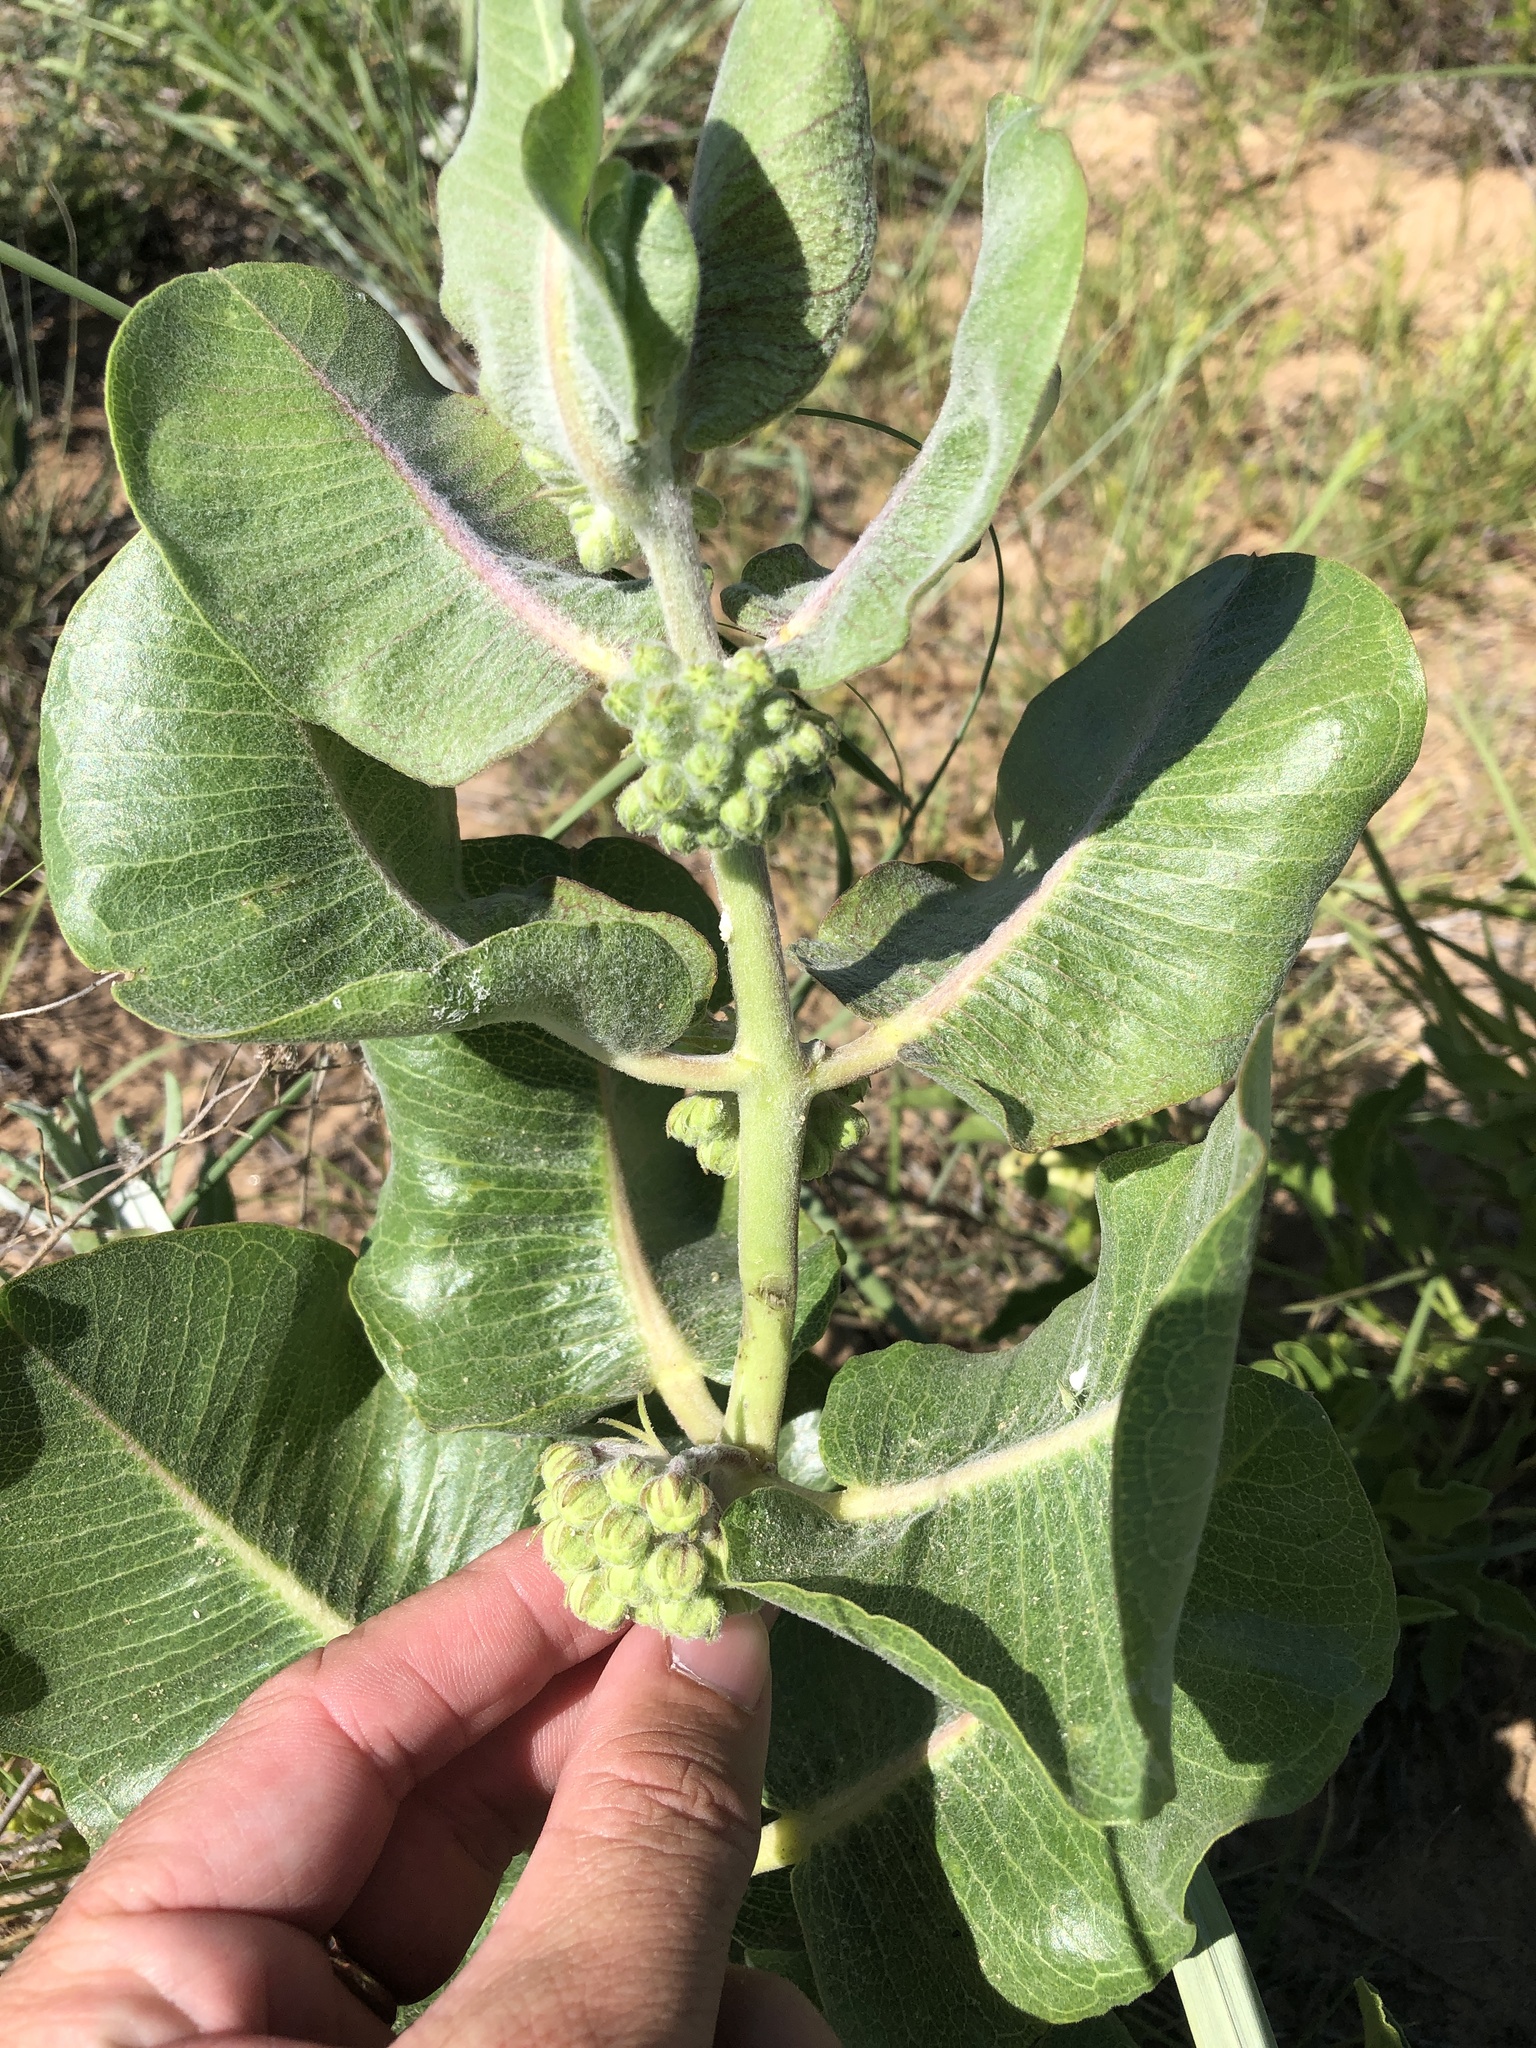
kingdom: Plantae
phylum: Tracheophyta
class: Magnoliopsida
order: Gentianales
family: Apocynaceae
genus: Asclepias
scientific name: Asclepias arenaria
